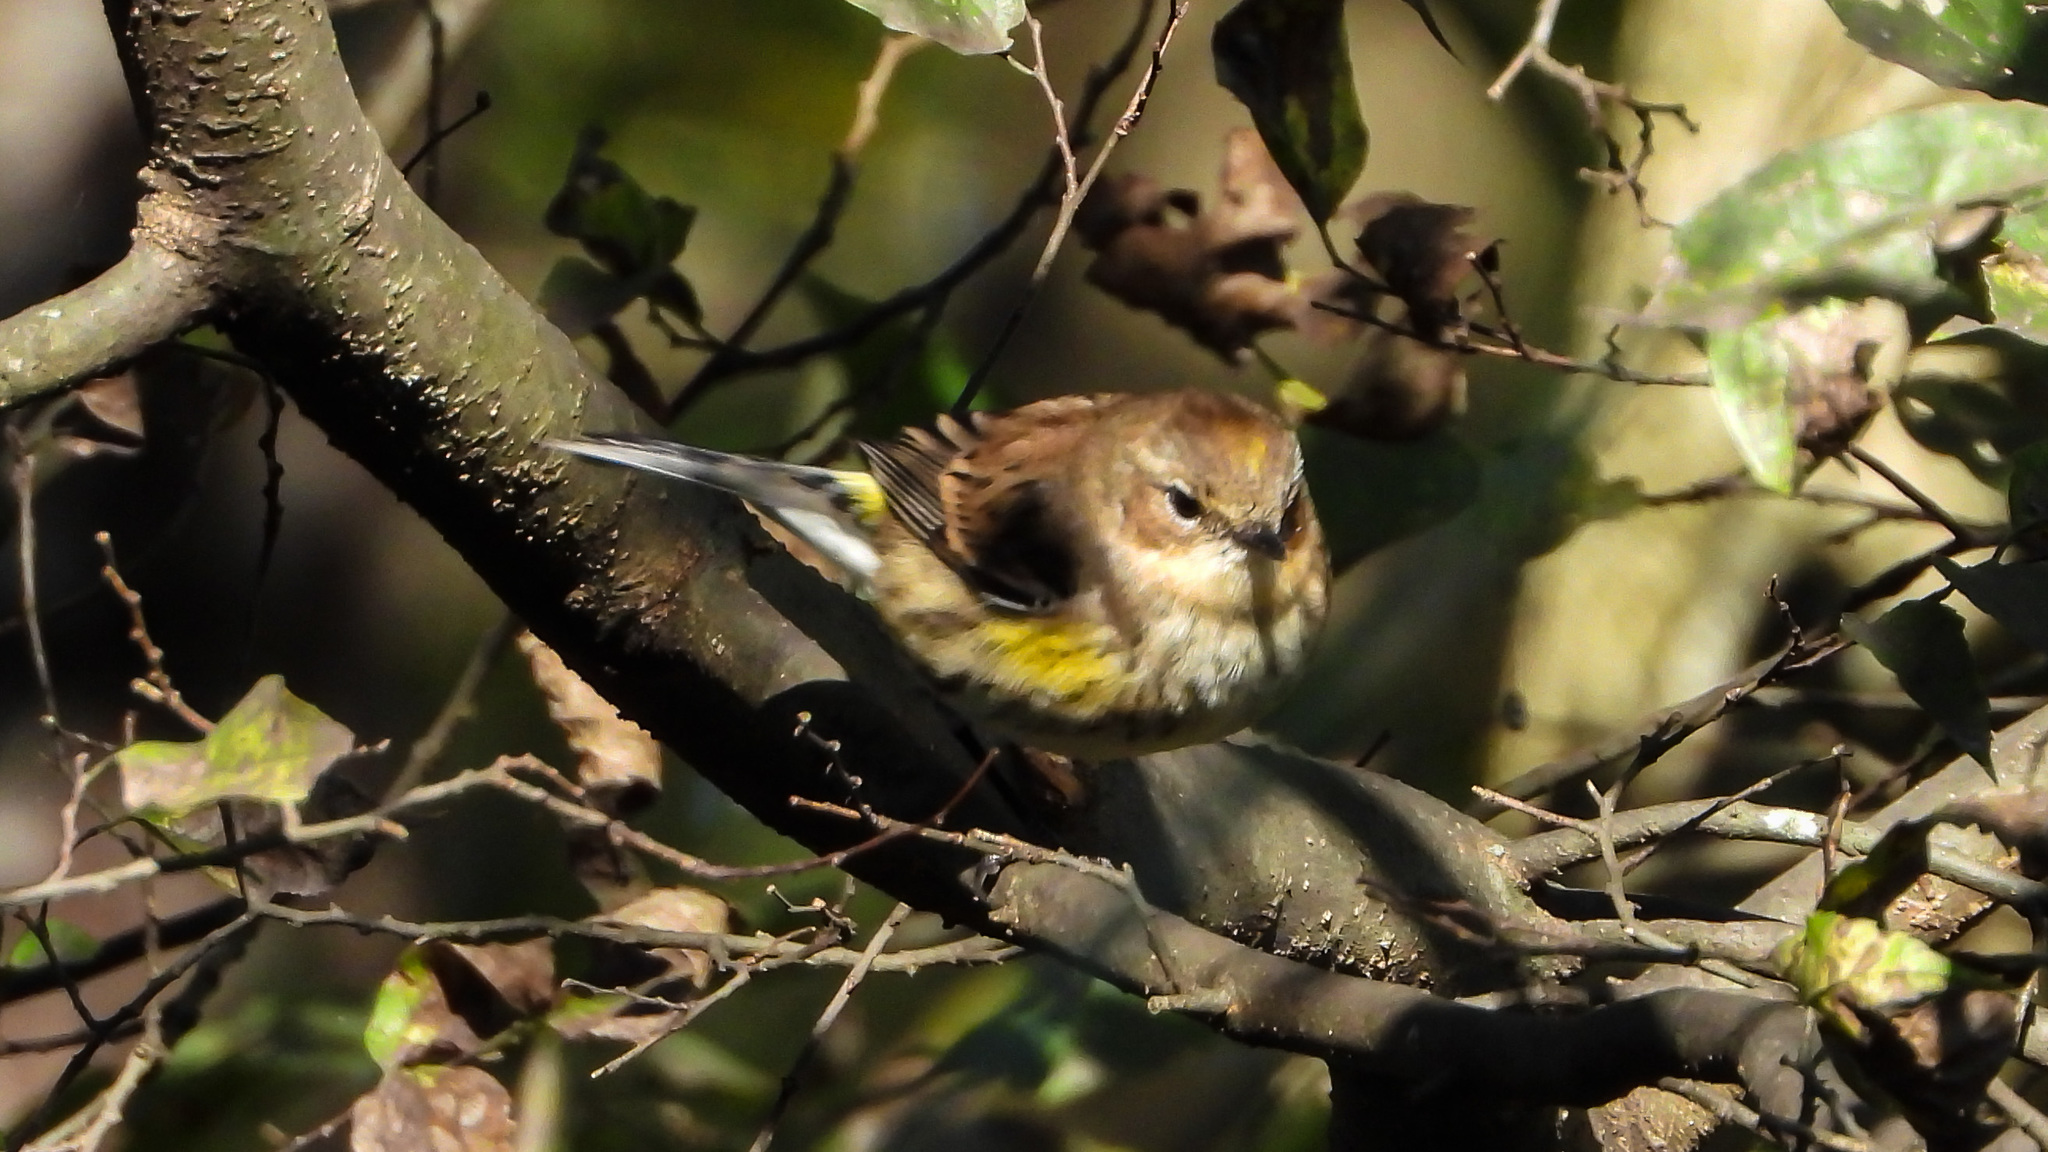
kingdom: Animalia
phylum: Chordata
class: Aves
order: Passeriformes
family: Parulidae
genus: Setophaga
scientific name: Setophaga coronata
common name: Myrtle warbler
